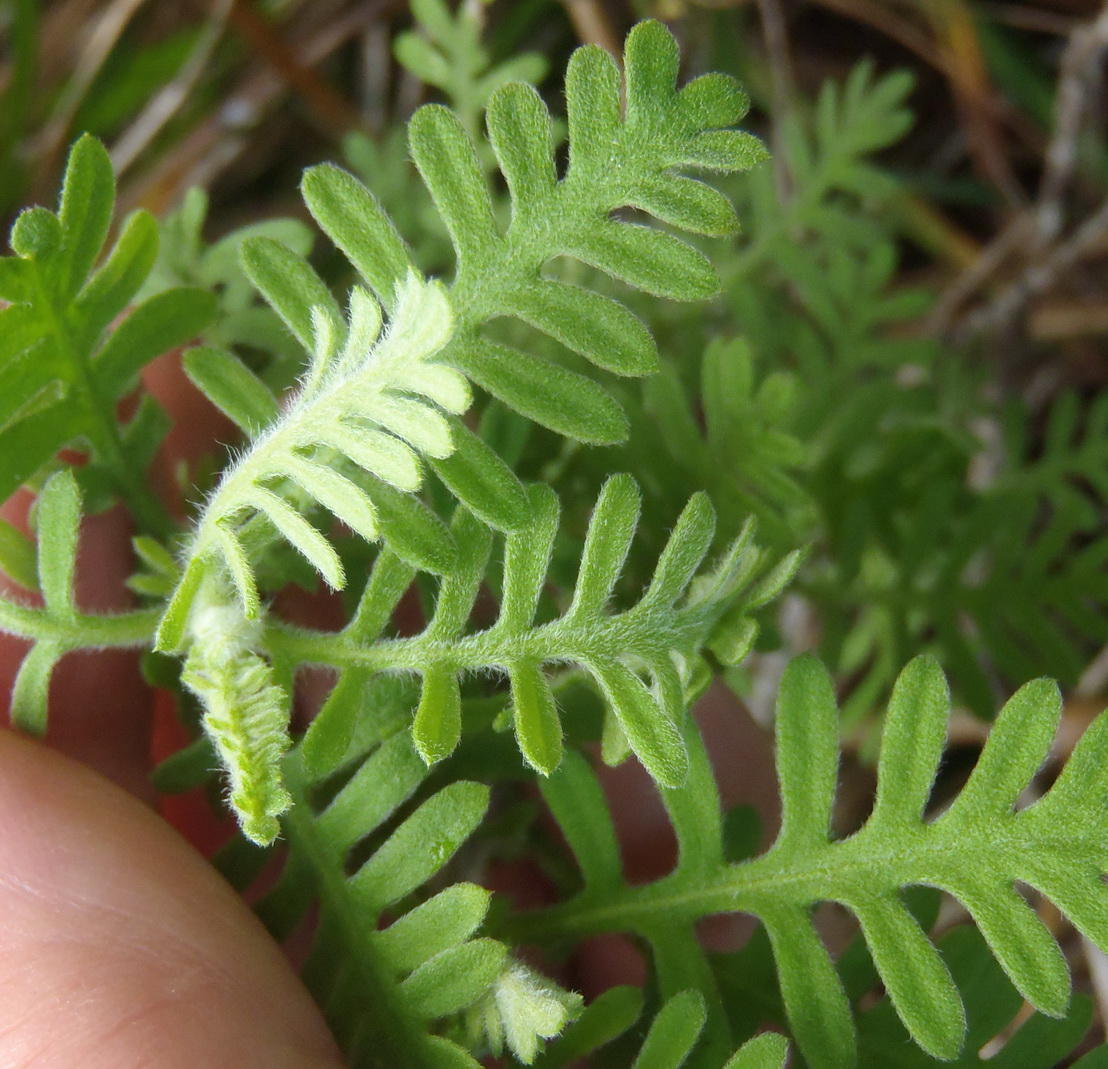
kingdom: Plantae
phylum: Tracheophyta
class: Magnoliopsida
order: Asterales
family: Asteraceae
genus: Hippia
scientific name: Hippia frutescens
